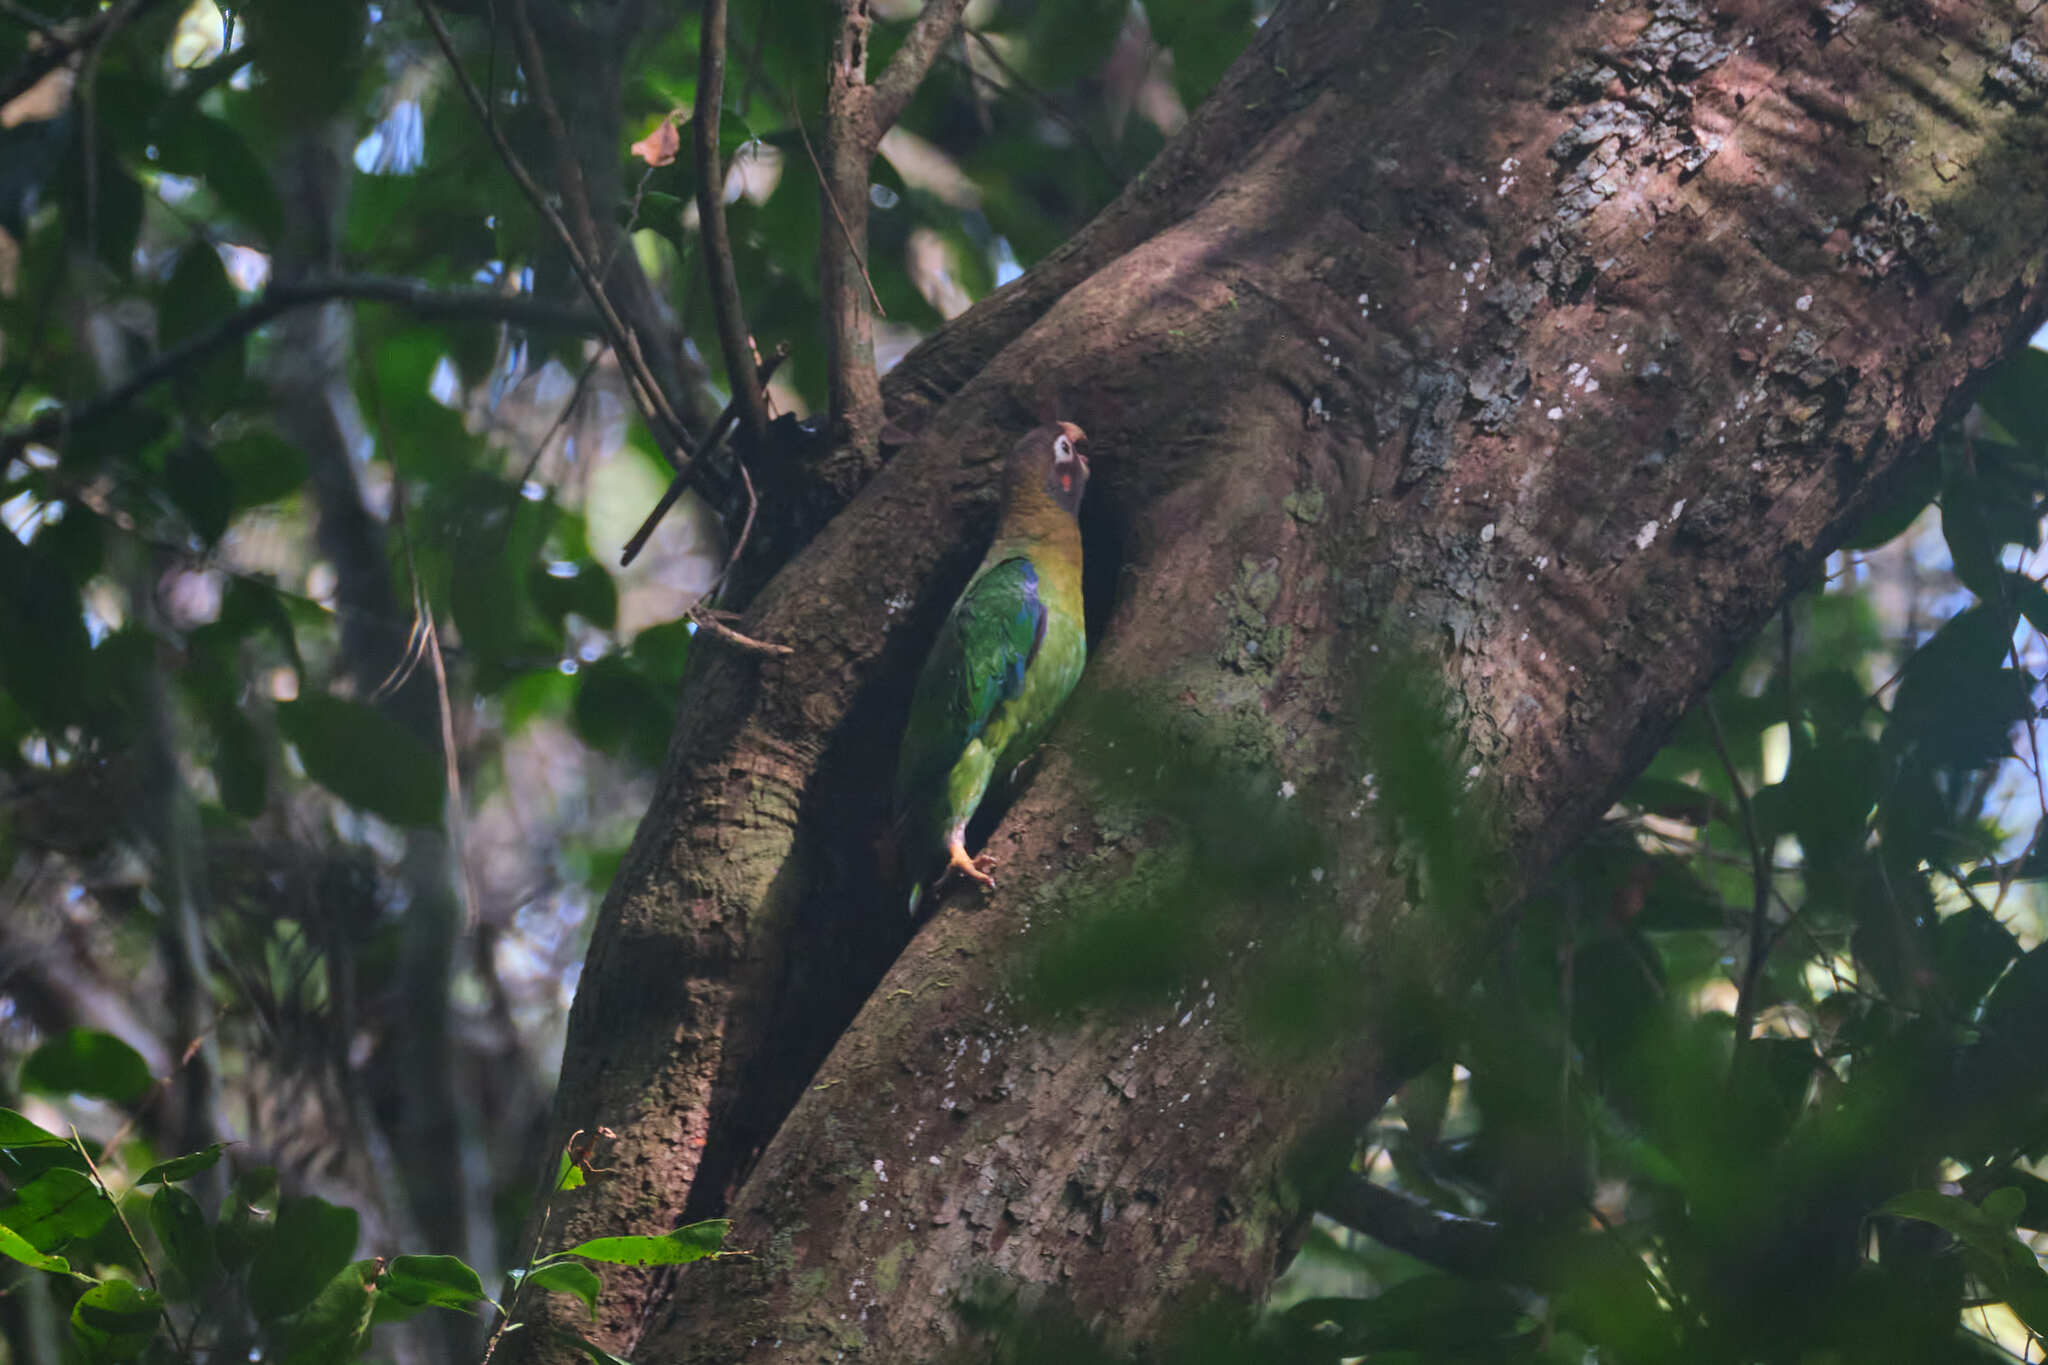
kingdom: Animalia
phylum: Chordata
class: Aves
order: Psittaciformes
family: Psittacidae
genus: Pionopsitta
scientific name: Pionopsitta haematotis
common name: Brown-hooded parrot
